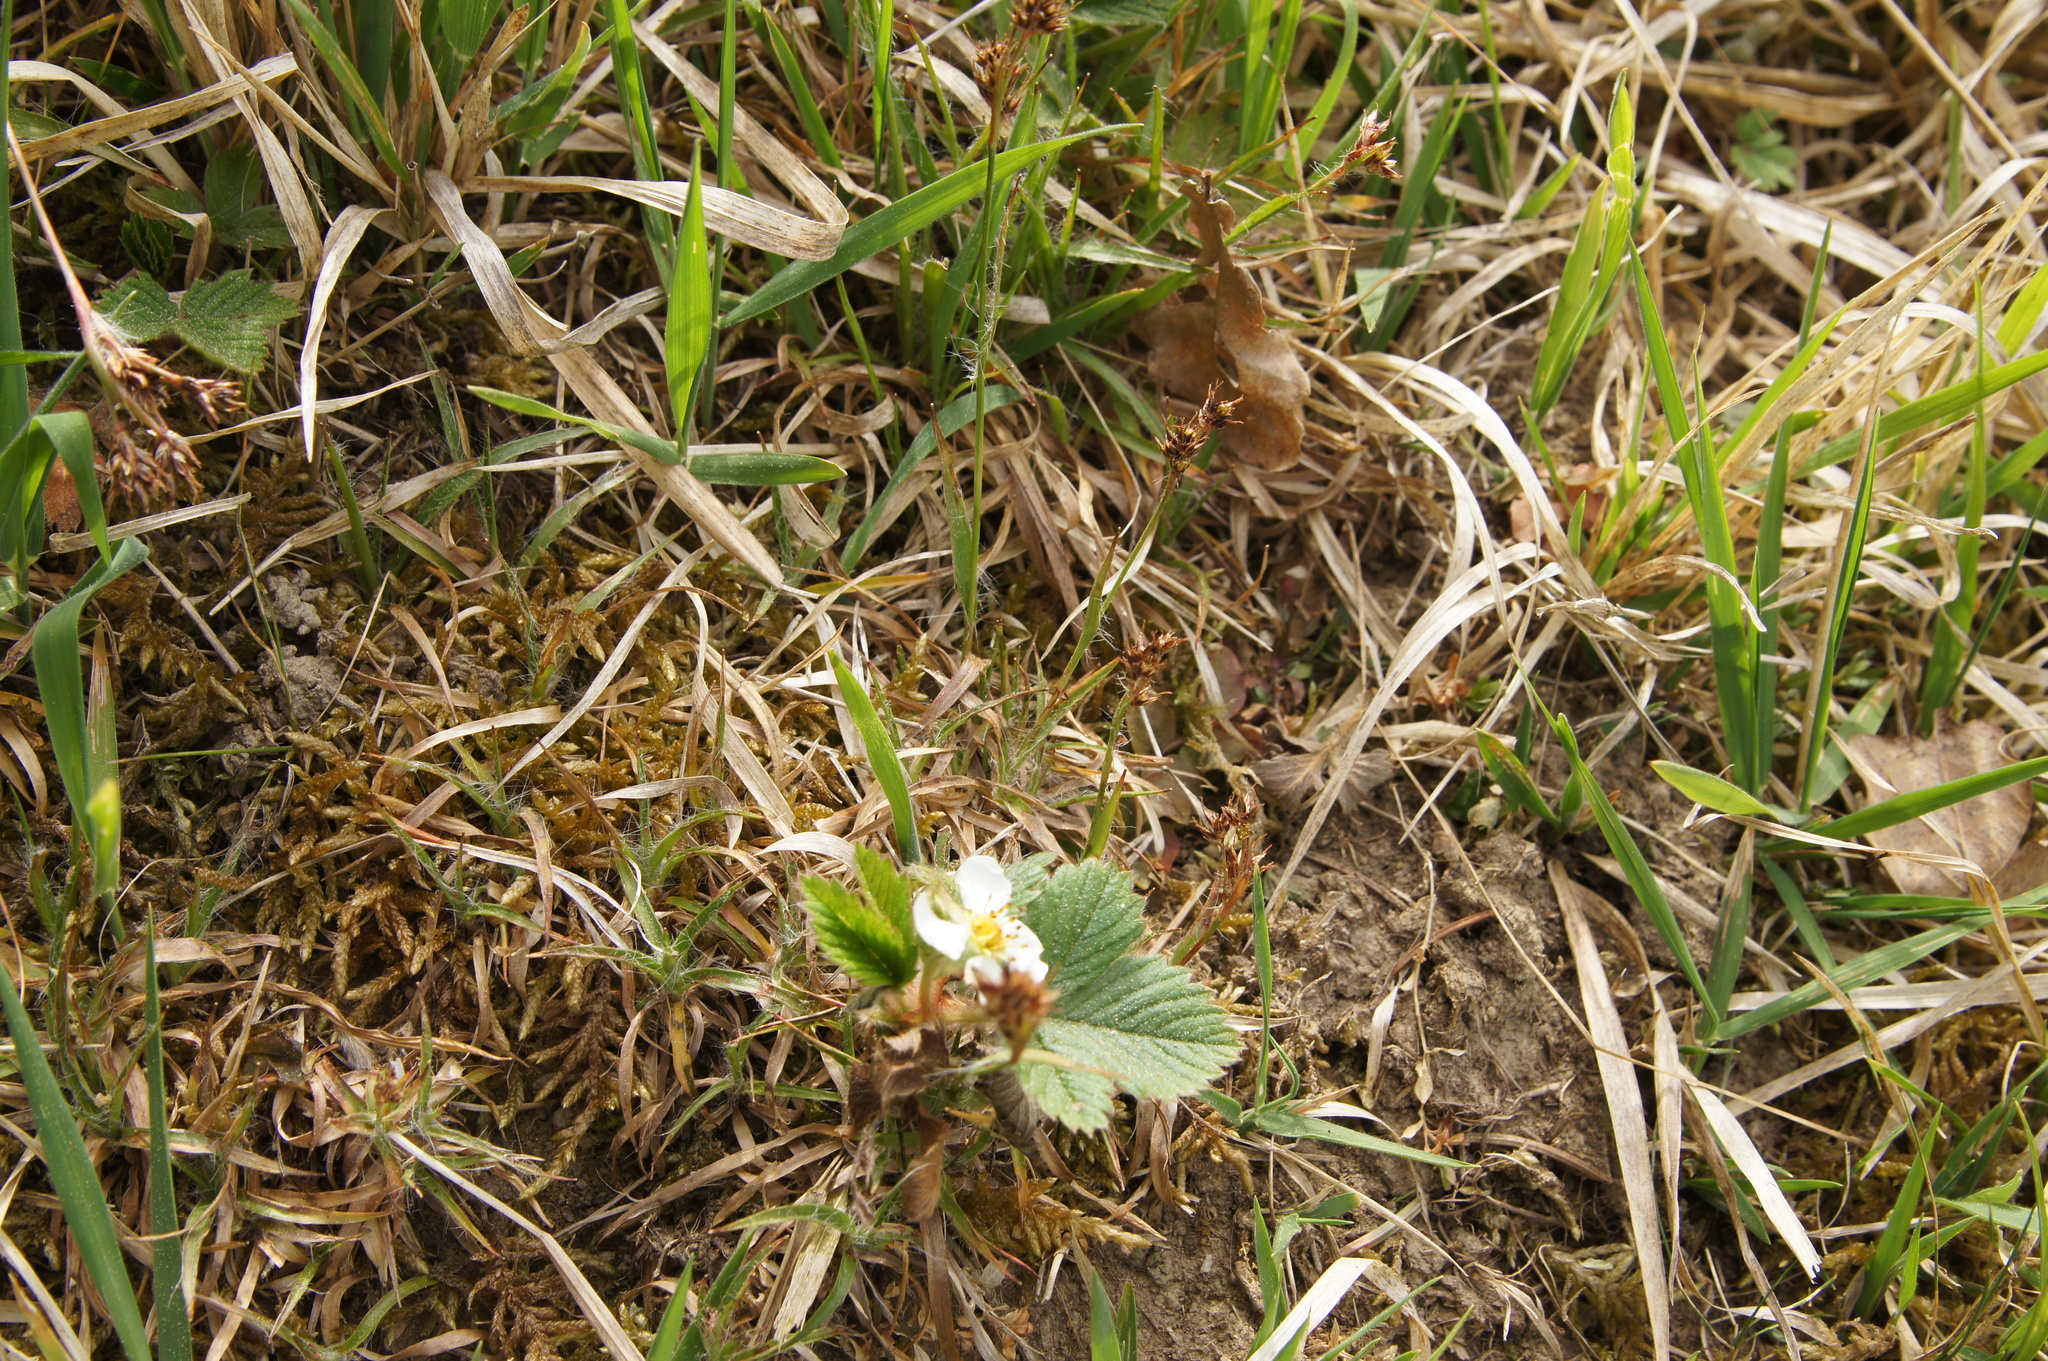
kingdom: Plantae
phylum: Tracheophyta
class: Liliopsida
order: Poales
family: Juncaceae
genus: Luzula
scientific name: Luzula campestris
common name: Field wood-rush
